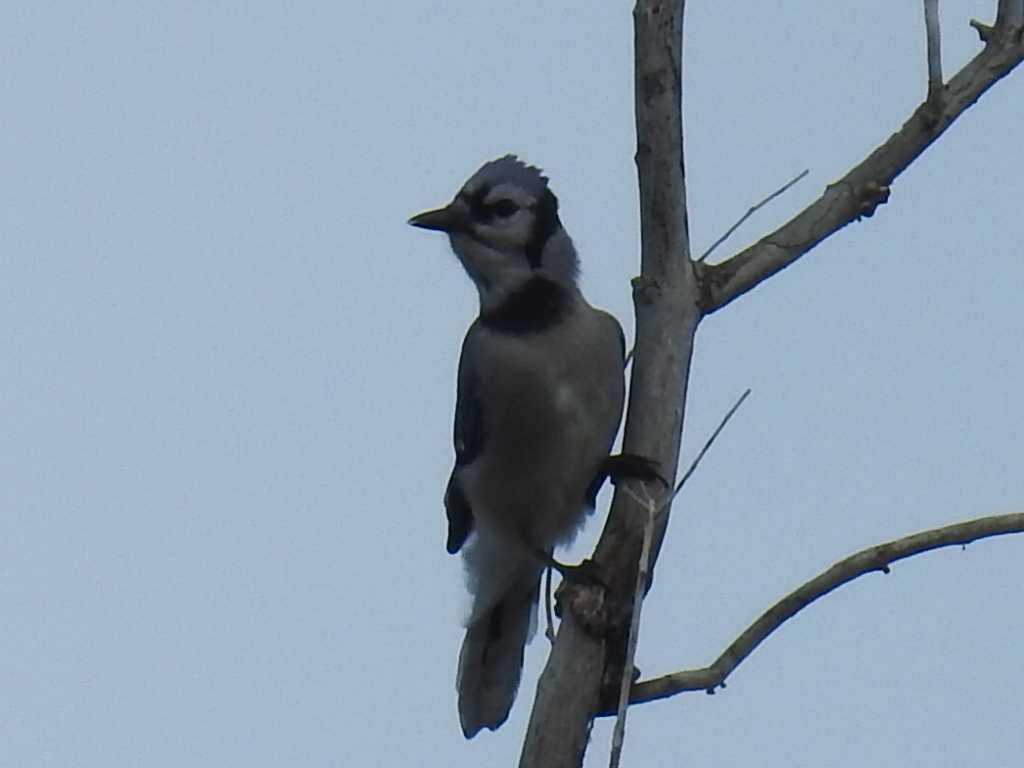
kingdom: Animalia
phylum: Chordata
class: Aves
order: Passeriformes
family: Corvidae
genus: Cyanocitta
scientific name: Cyanocitta cristata
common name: Blue jay
